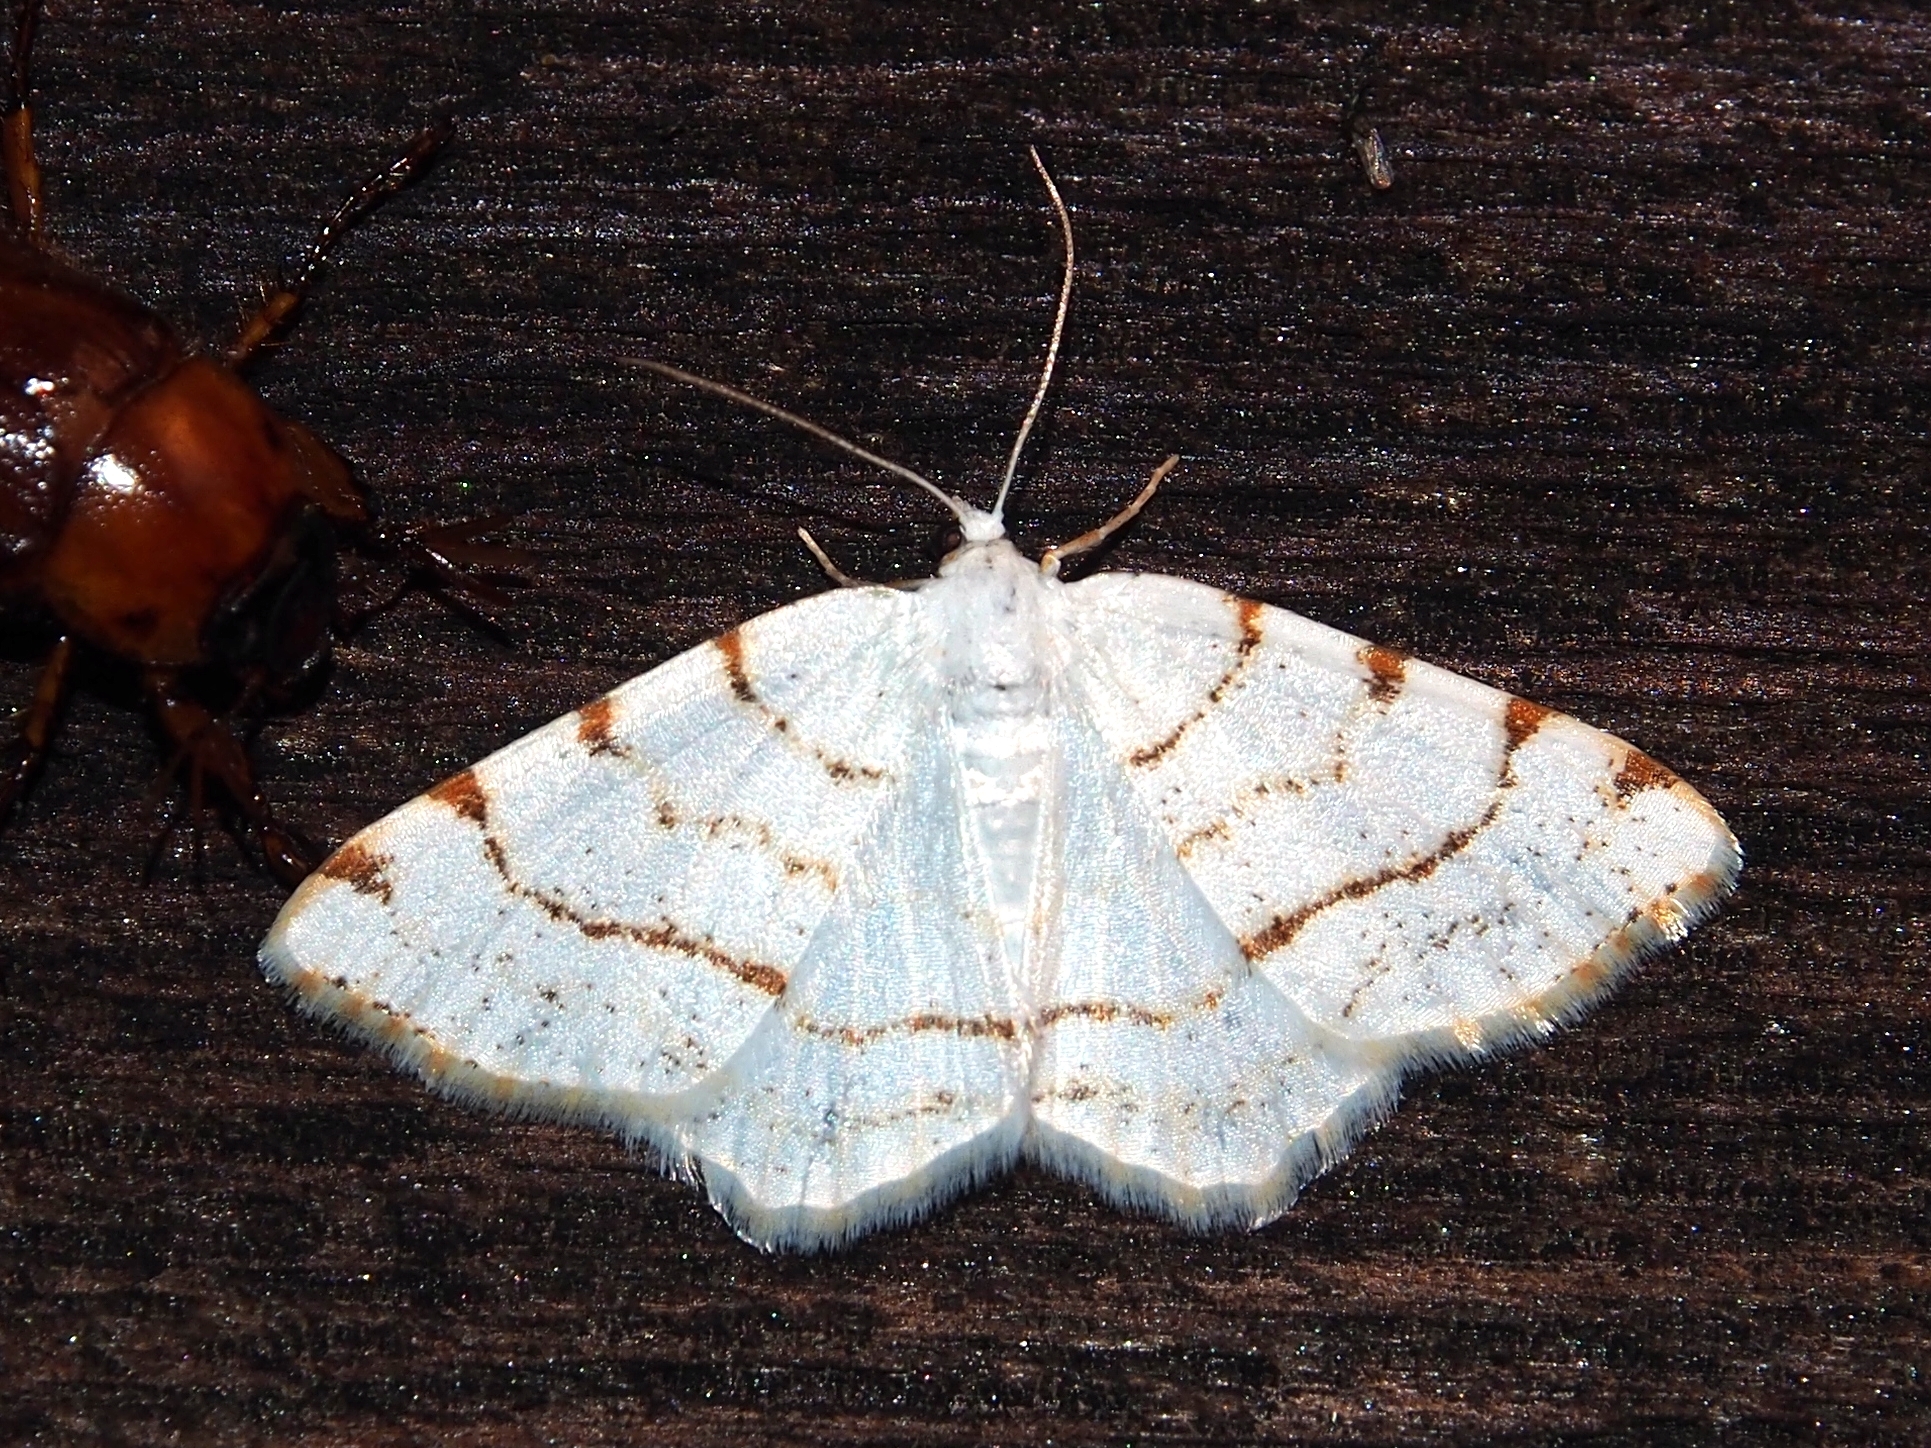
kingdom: Animalia
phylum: Arthropoda
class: Insecta
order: Lepidoptera
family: Geometridae
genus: Macaria
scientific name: Macaria pustularia
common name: Lesser maple spanworm moth
